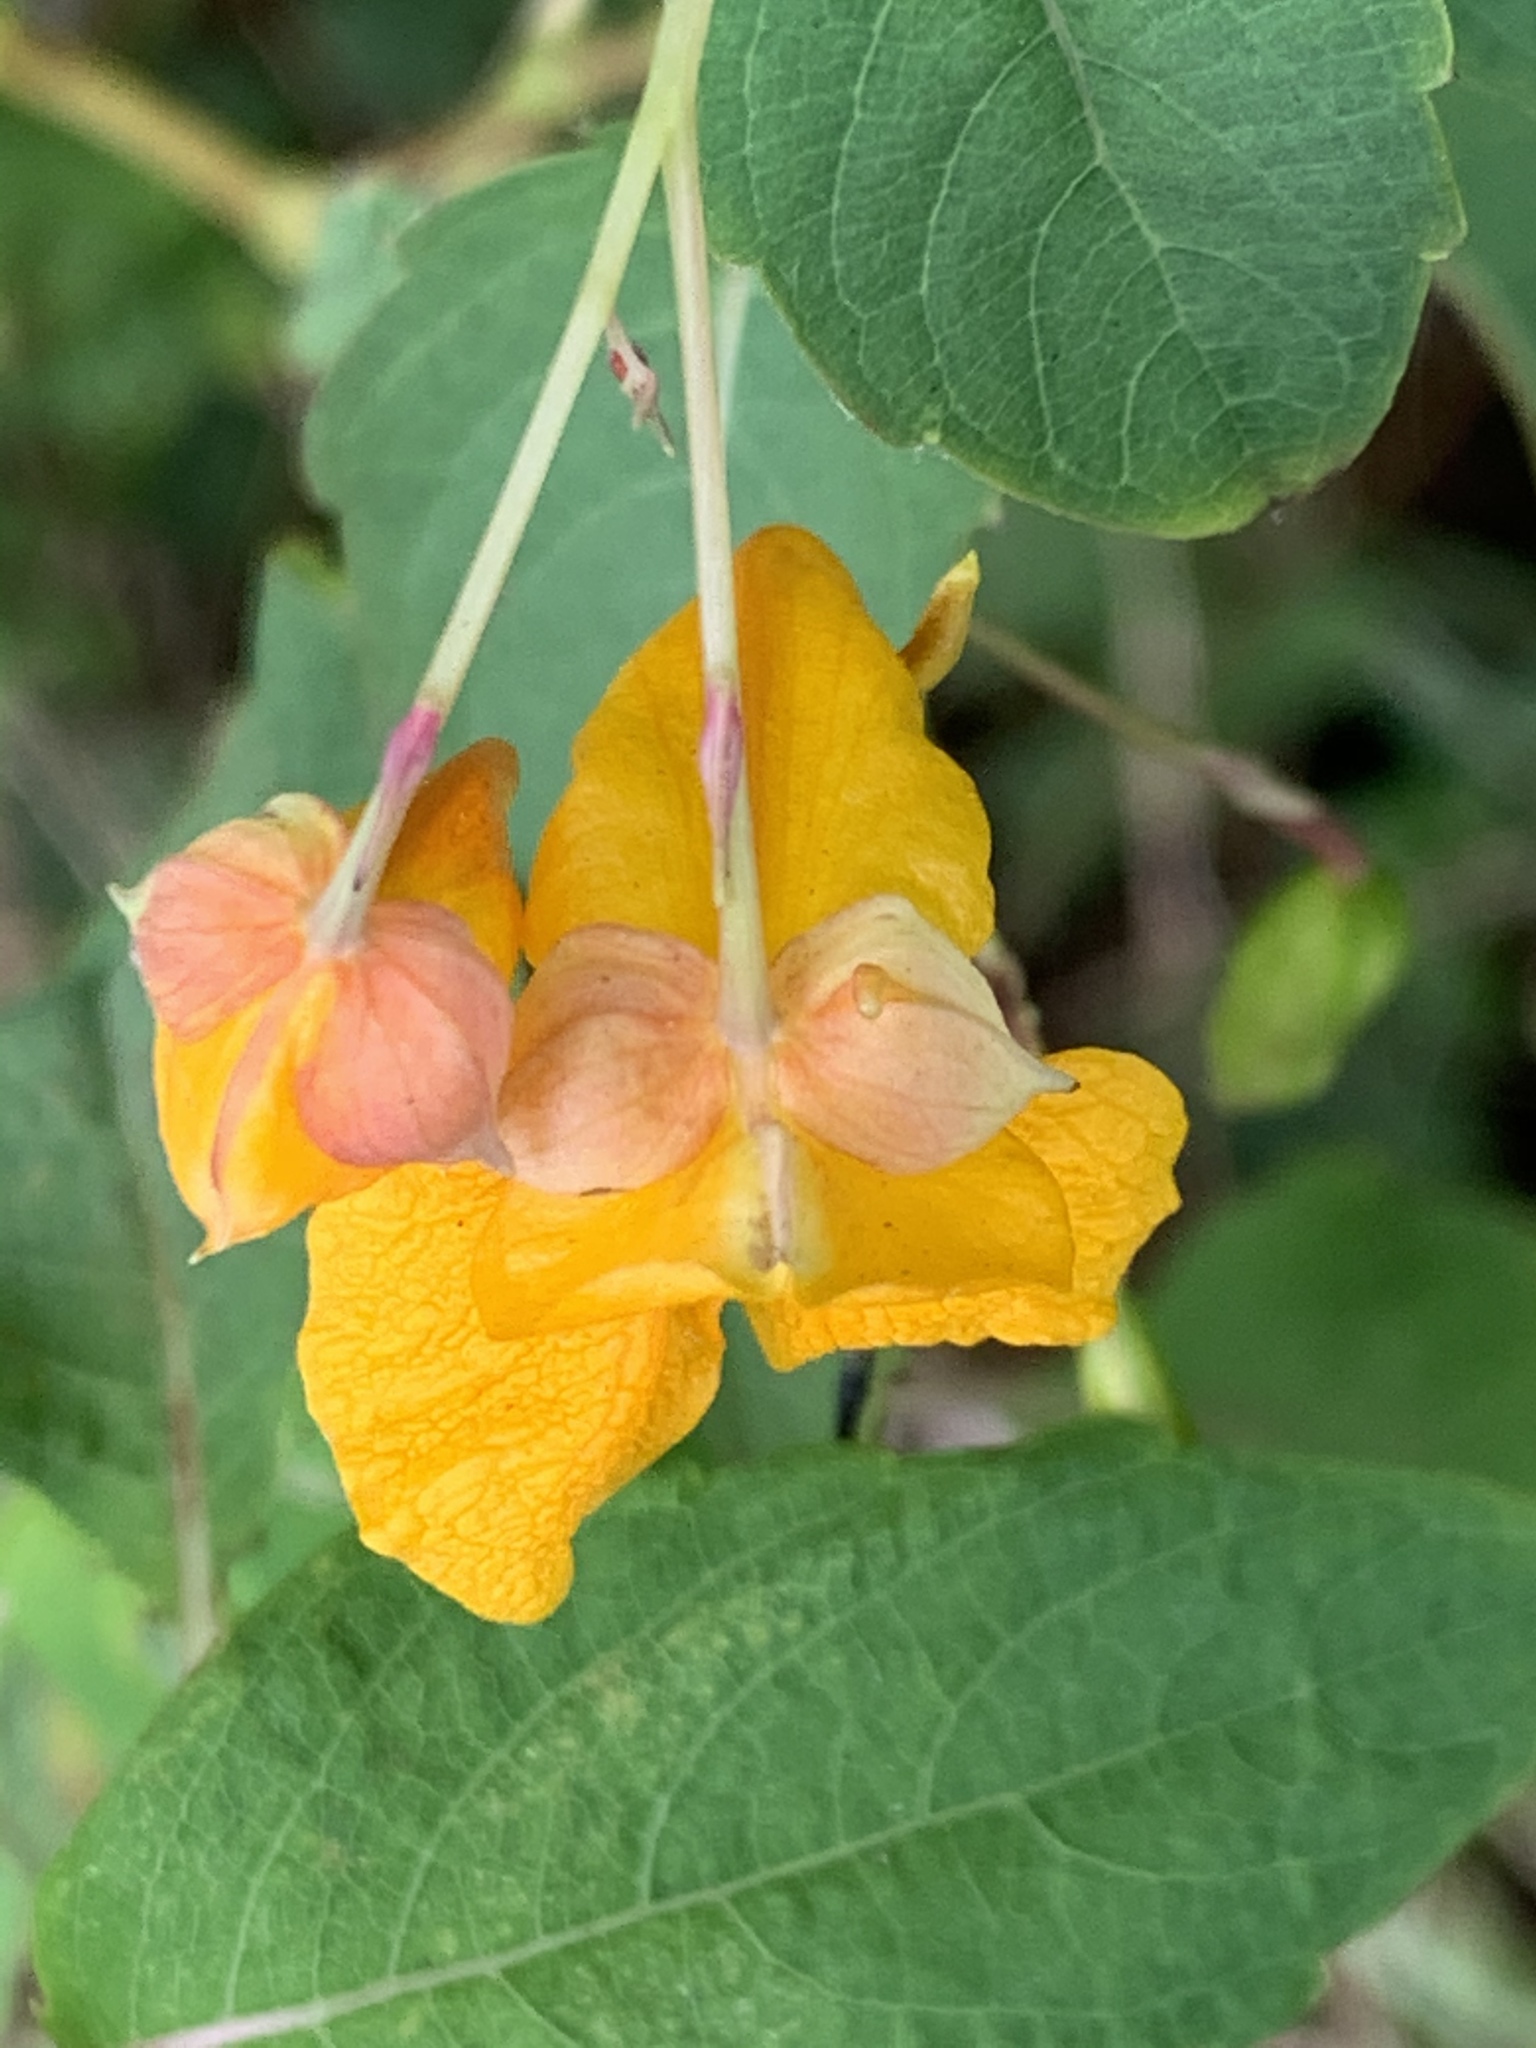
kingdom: Plantae
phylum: Tracheophyta
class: Magnoliopsida
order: Ericales
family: Balsaminaceae
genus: Impatiens
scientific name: Impatiens capensis
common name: Orange balsam
